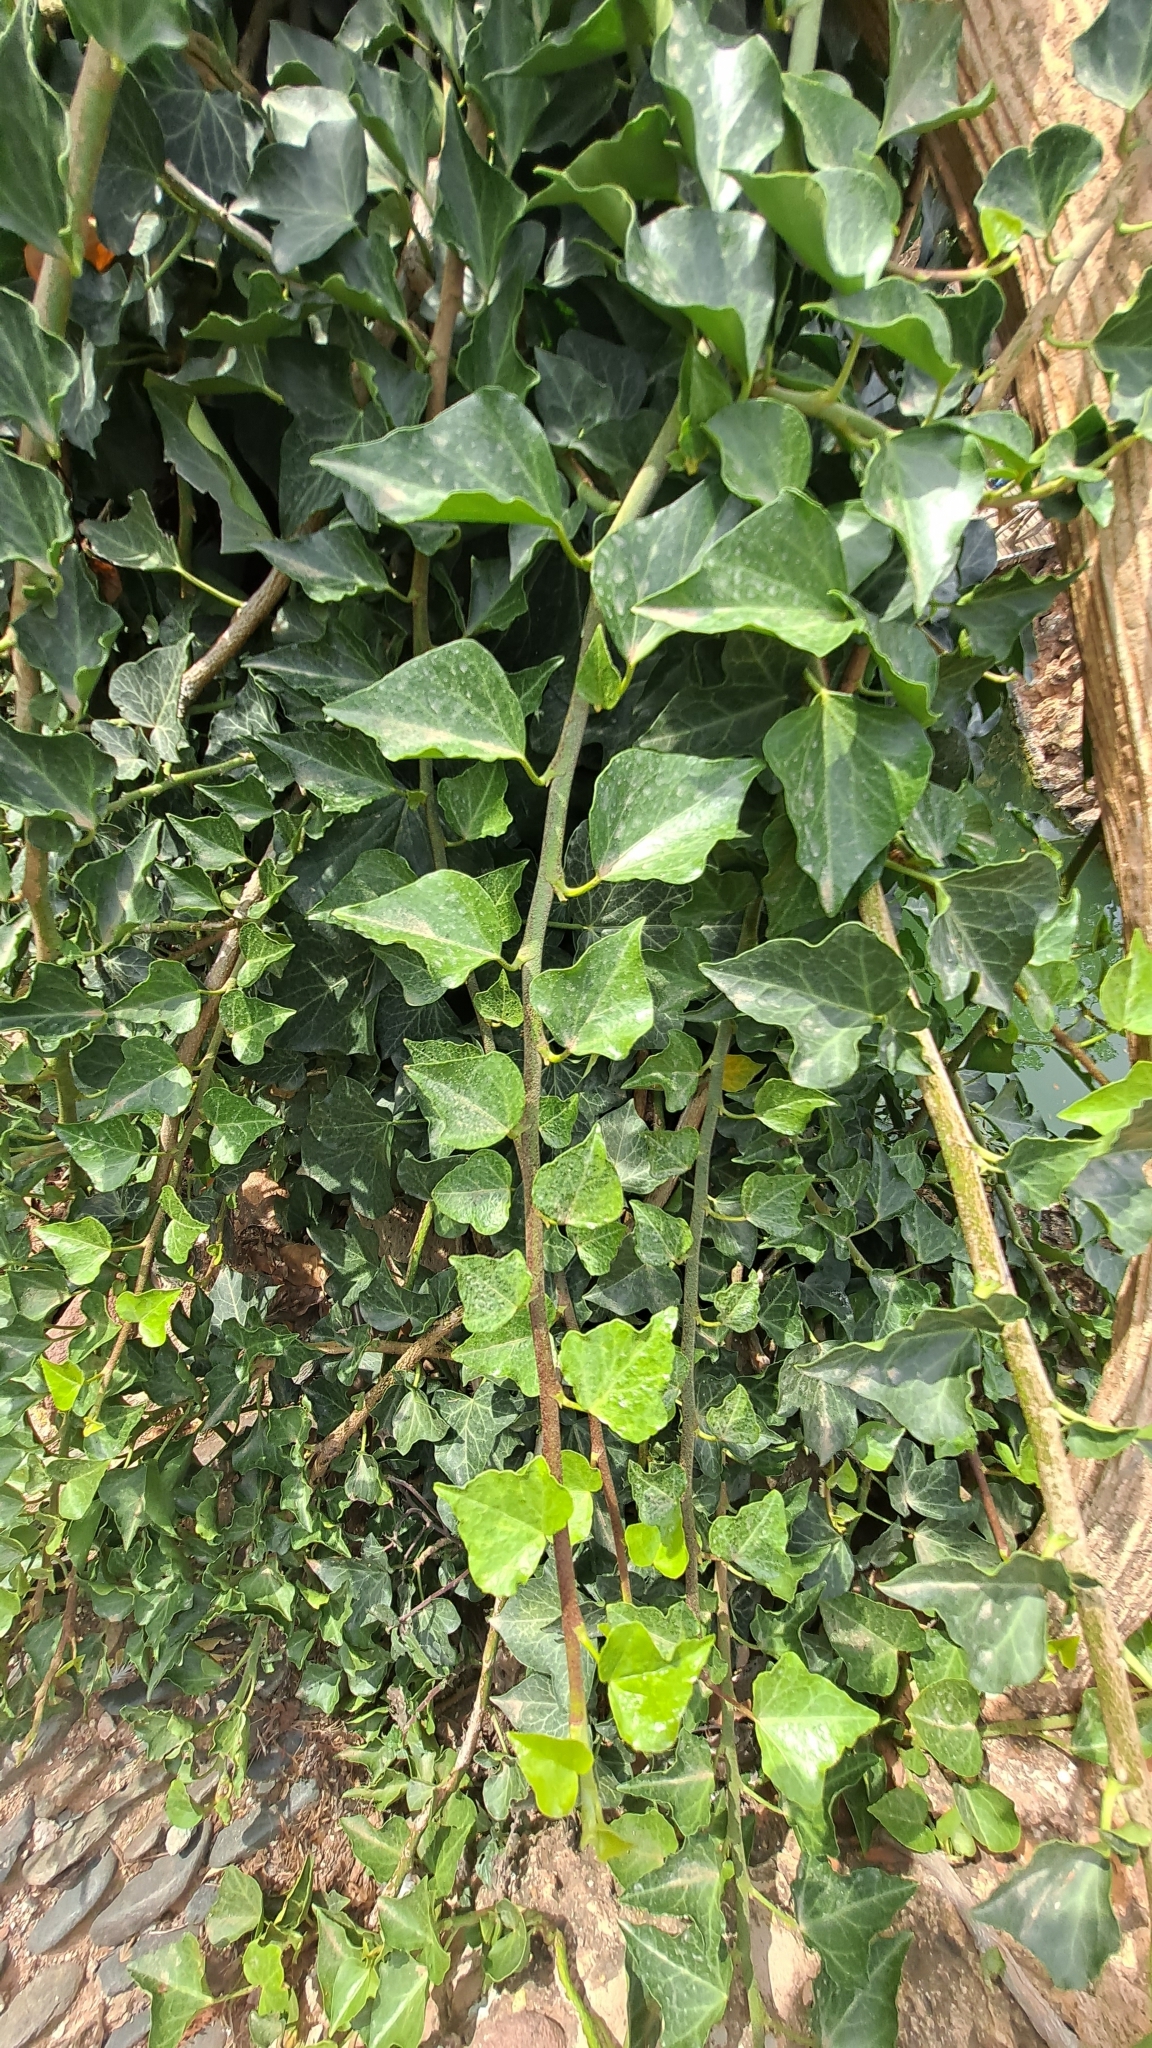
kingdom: Plantae
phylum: Tracheophyta
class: Magnoliopsida
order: Apiales
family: Araliaceae
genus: Hedera
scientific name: Hedera helix
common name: Ivy
